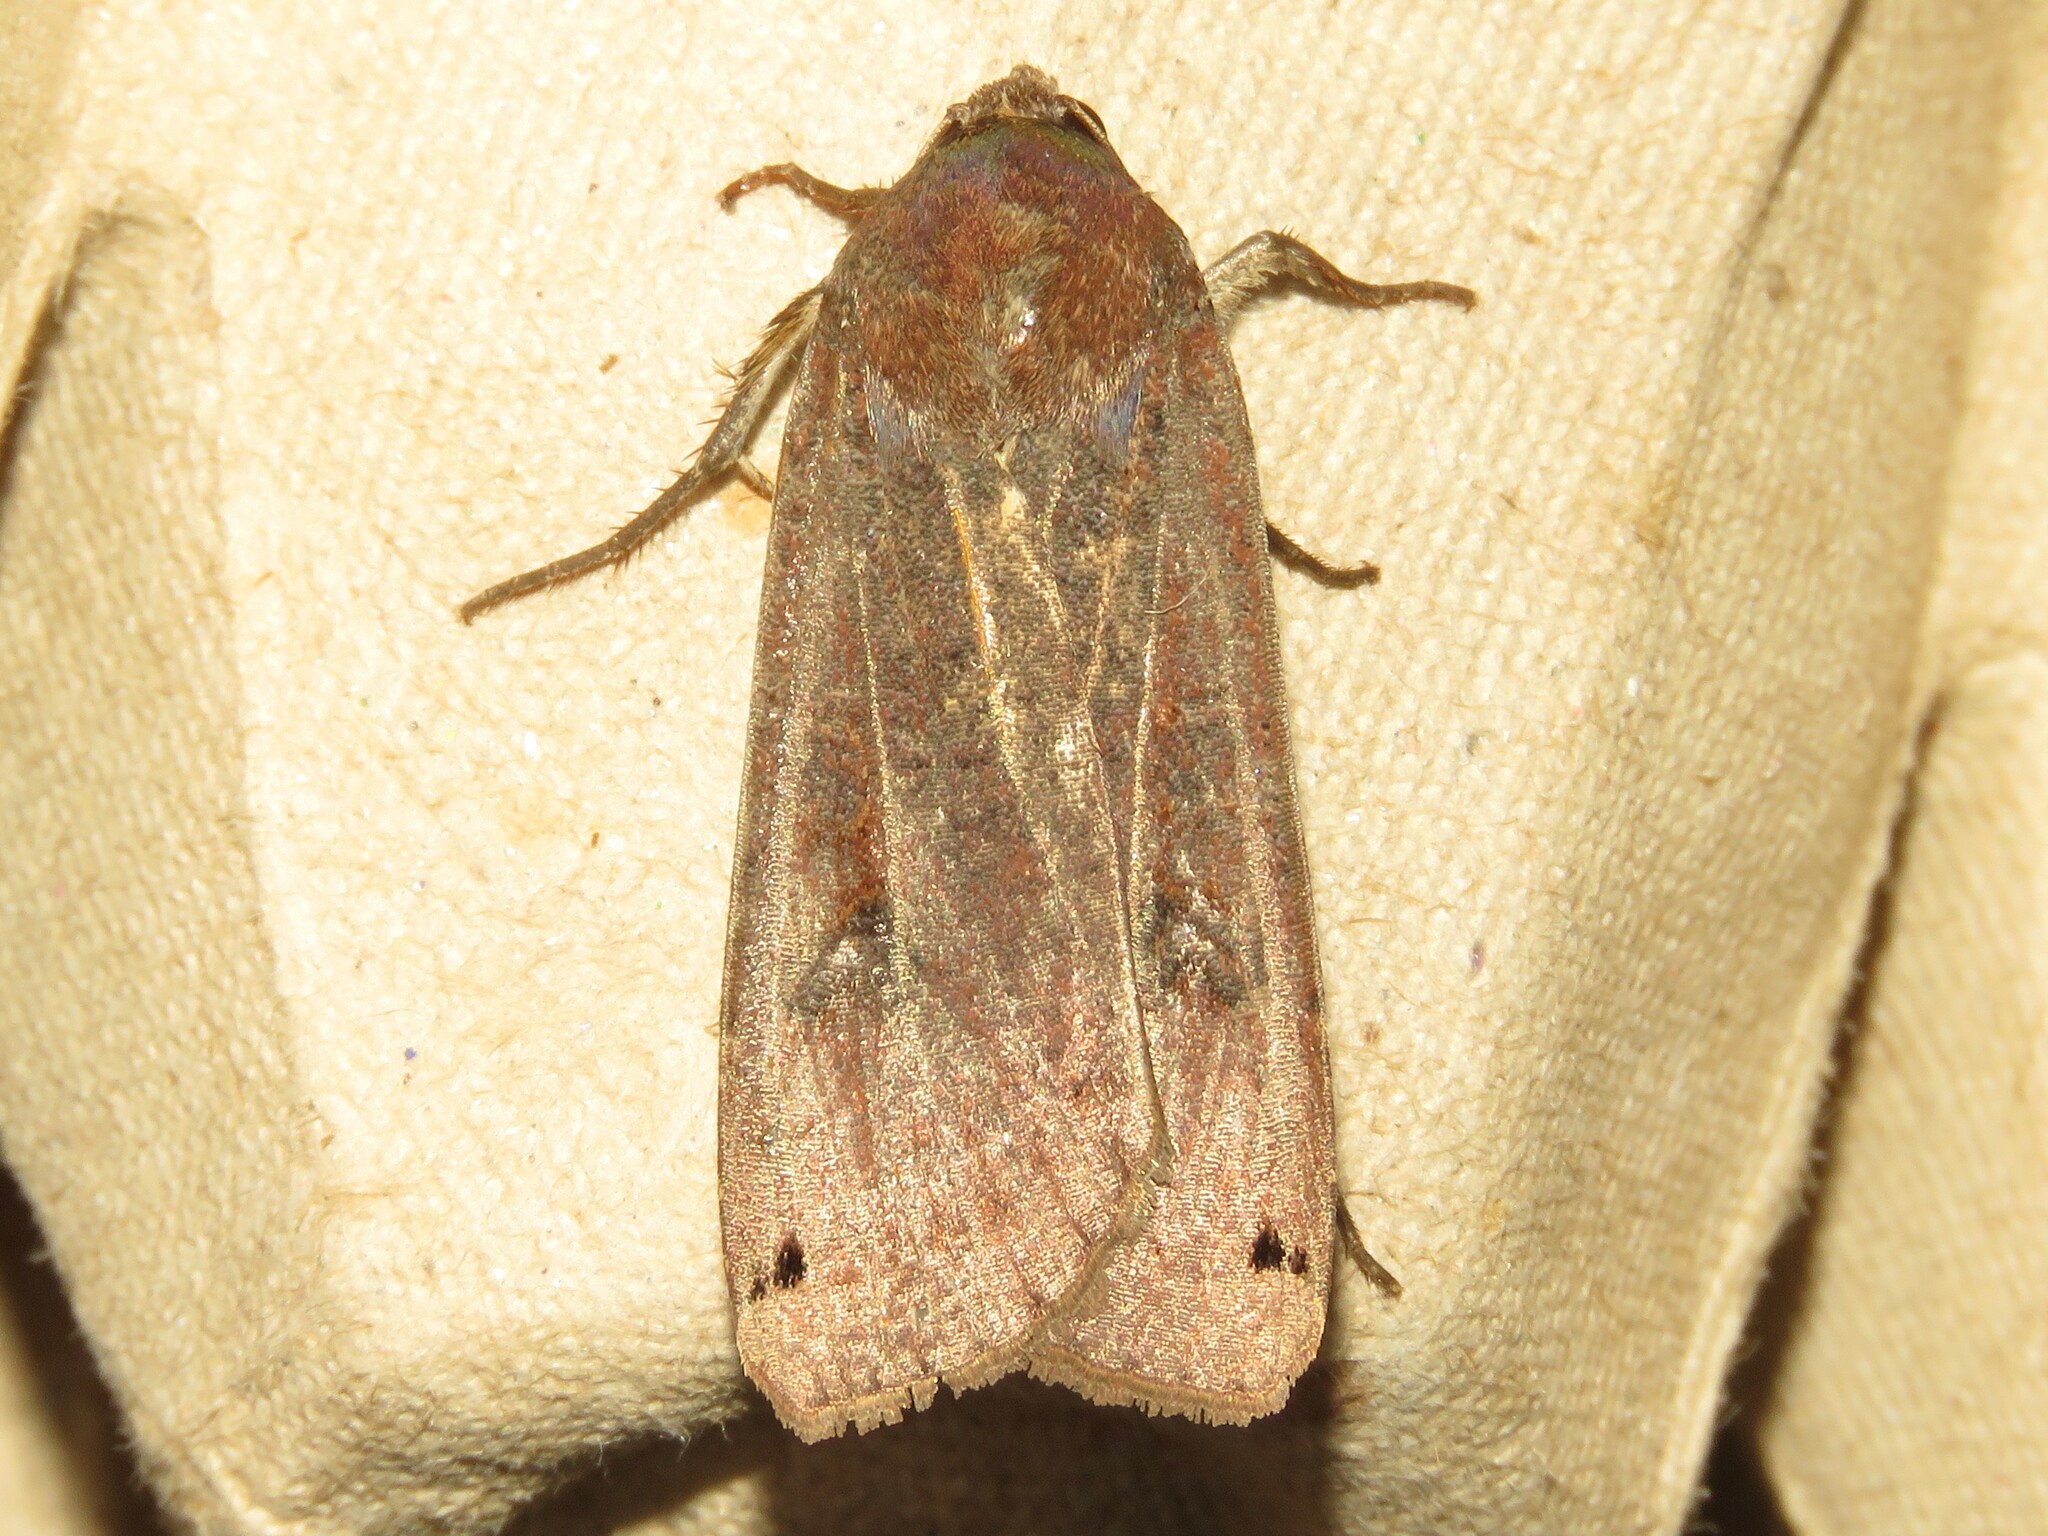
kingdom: Animalia
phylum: Arthropoda
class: Insecta
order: Lepidoptera
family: Noctuidae
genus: Noctua
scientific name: Noctua pronuba
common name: Large yellow underwing
